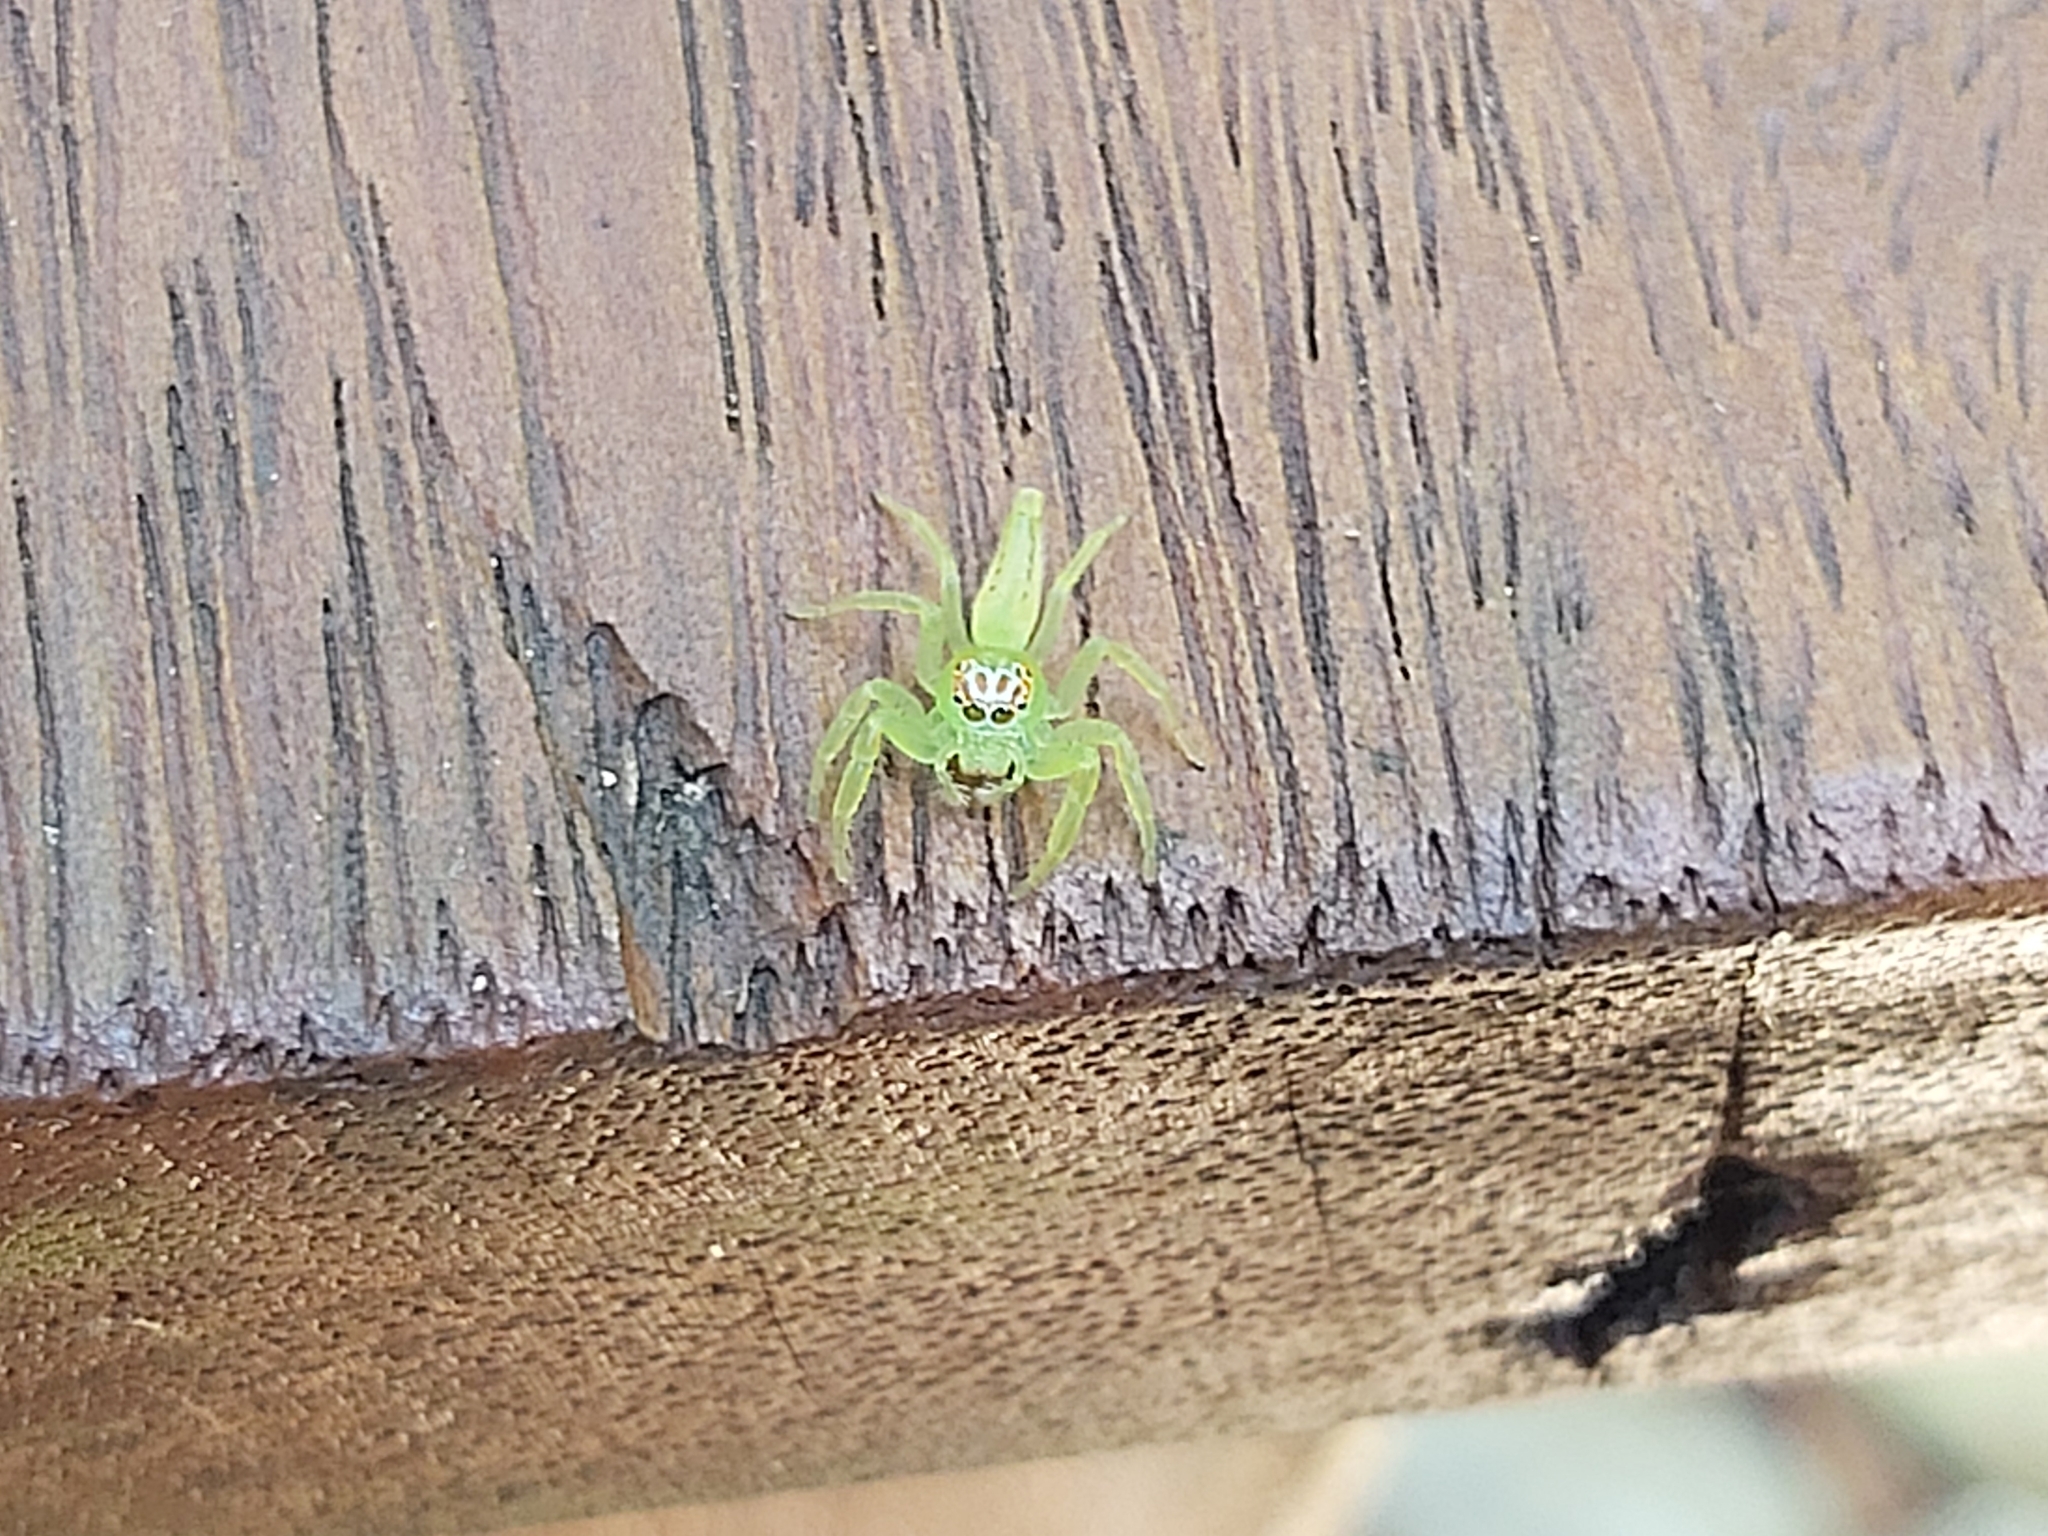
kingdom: Animalia
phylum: Arthropoda
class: Arachnida
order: Araneae
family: Salticidae
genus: Mopsus
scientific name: Mopsus mormon
